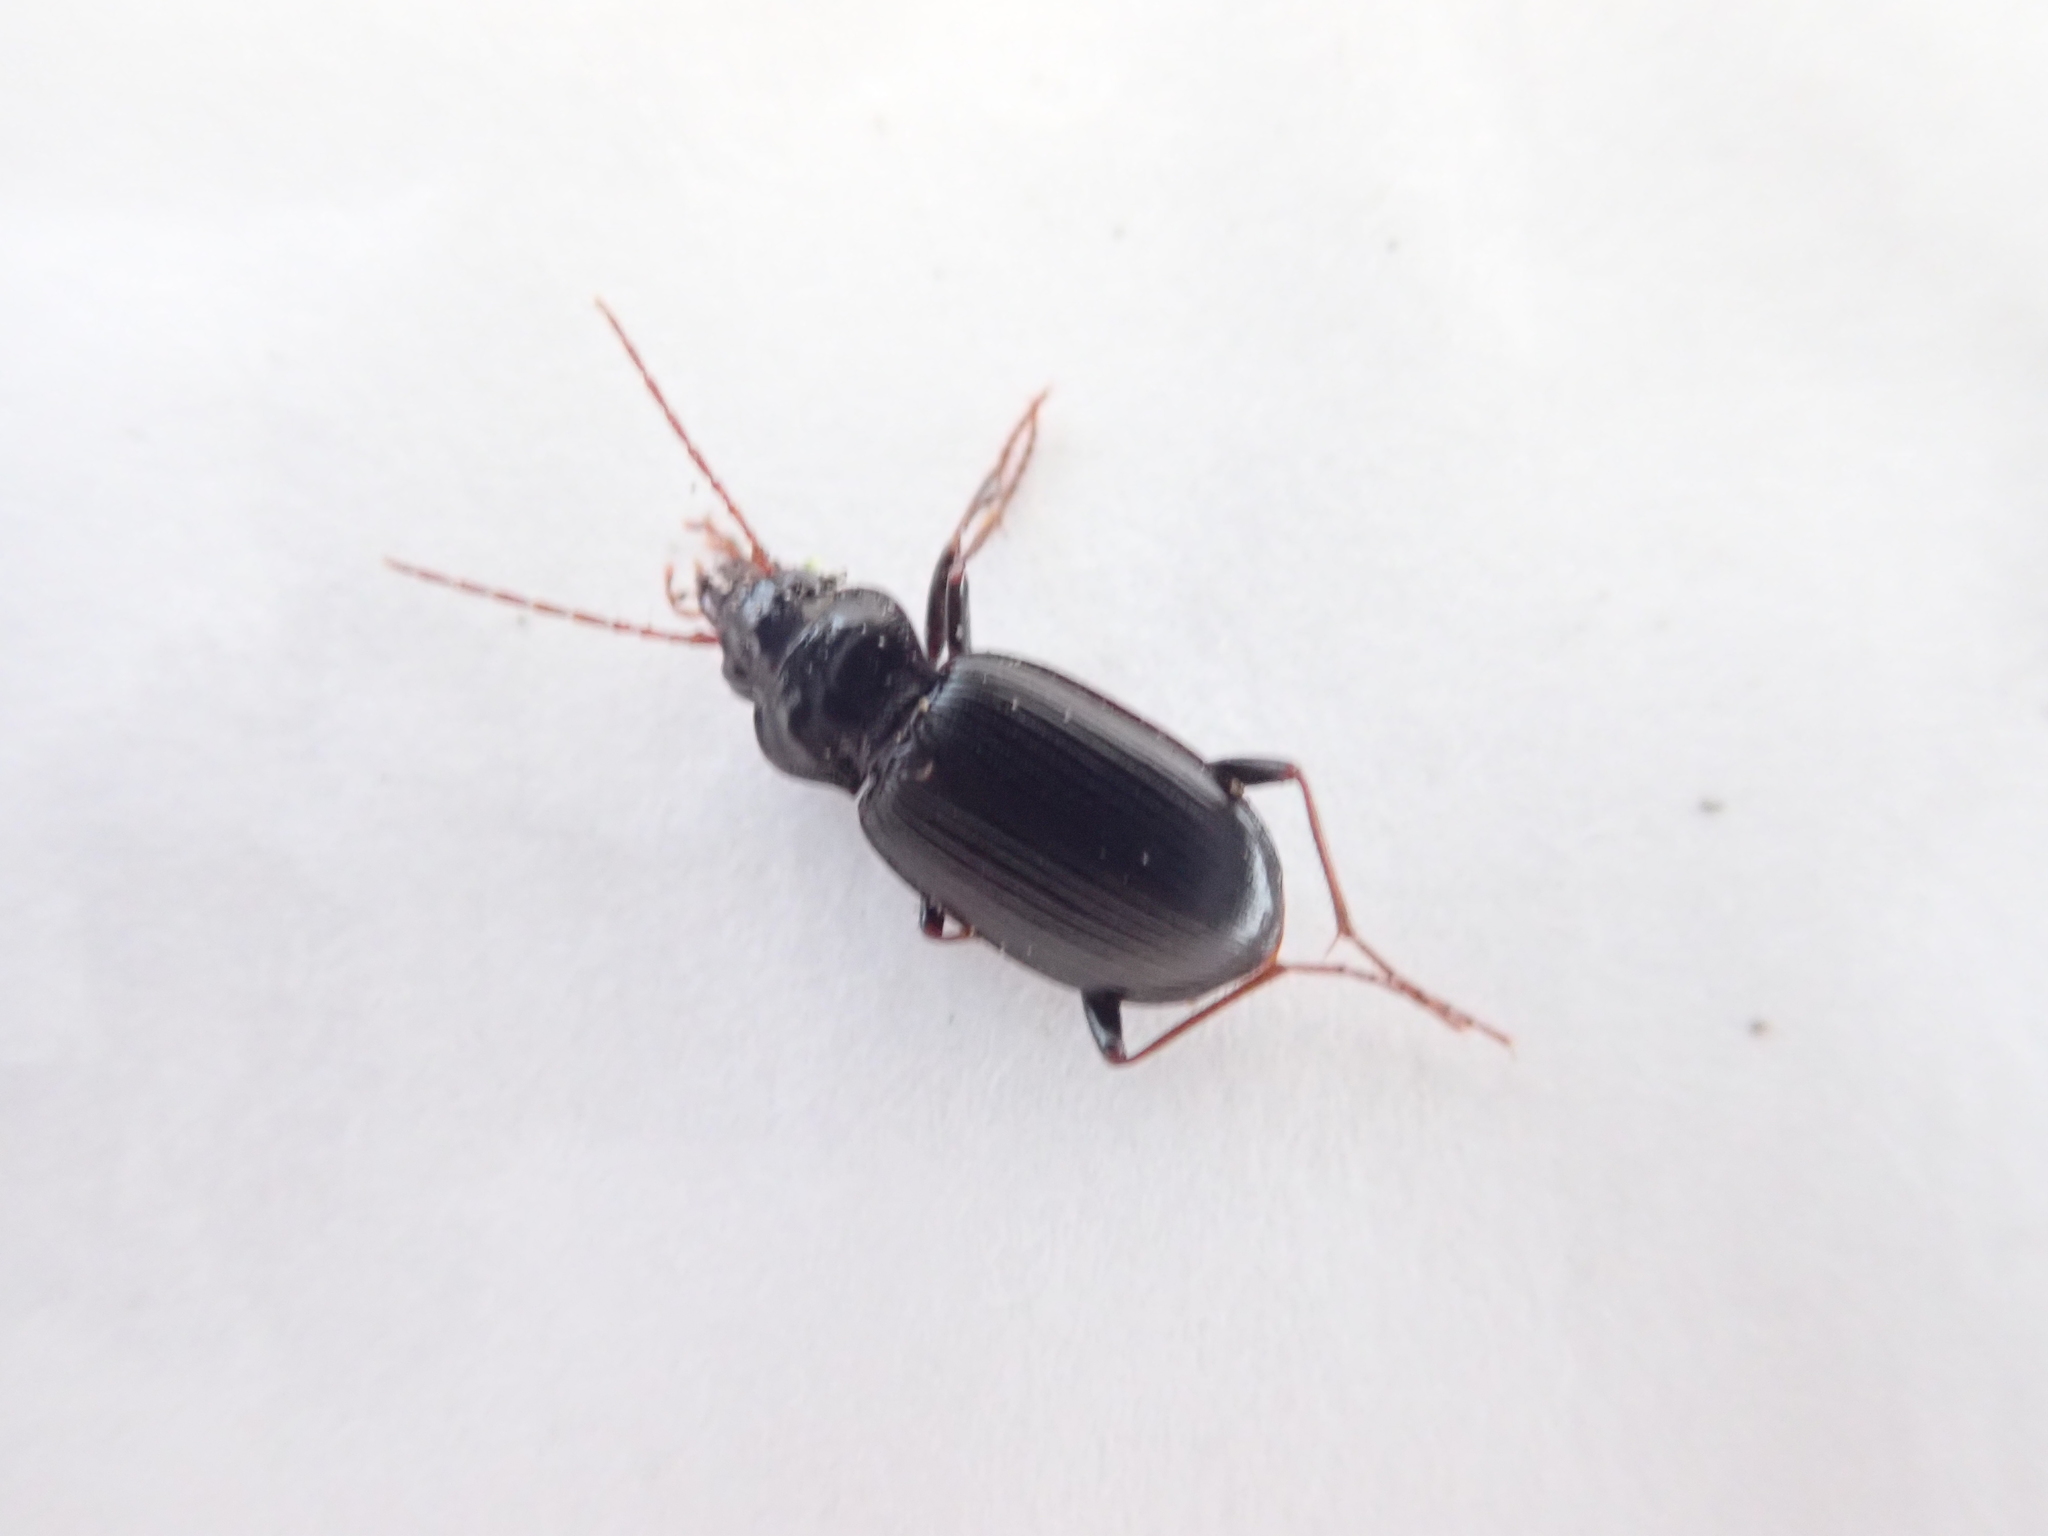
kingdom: Animalia
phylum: Arthropoda
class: Insecta
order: Coleoptera
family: Carabidae
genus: Nebria
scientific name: Nebria
